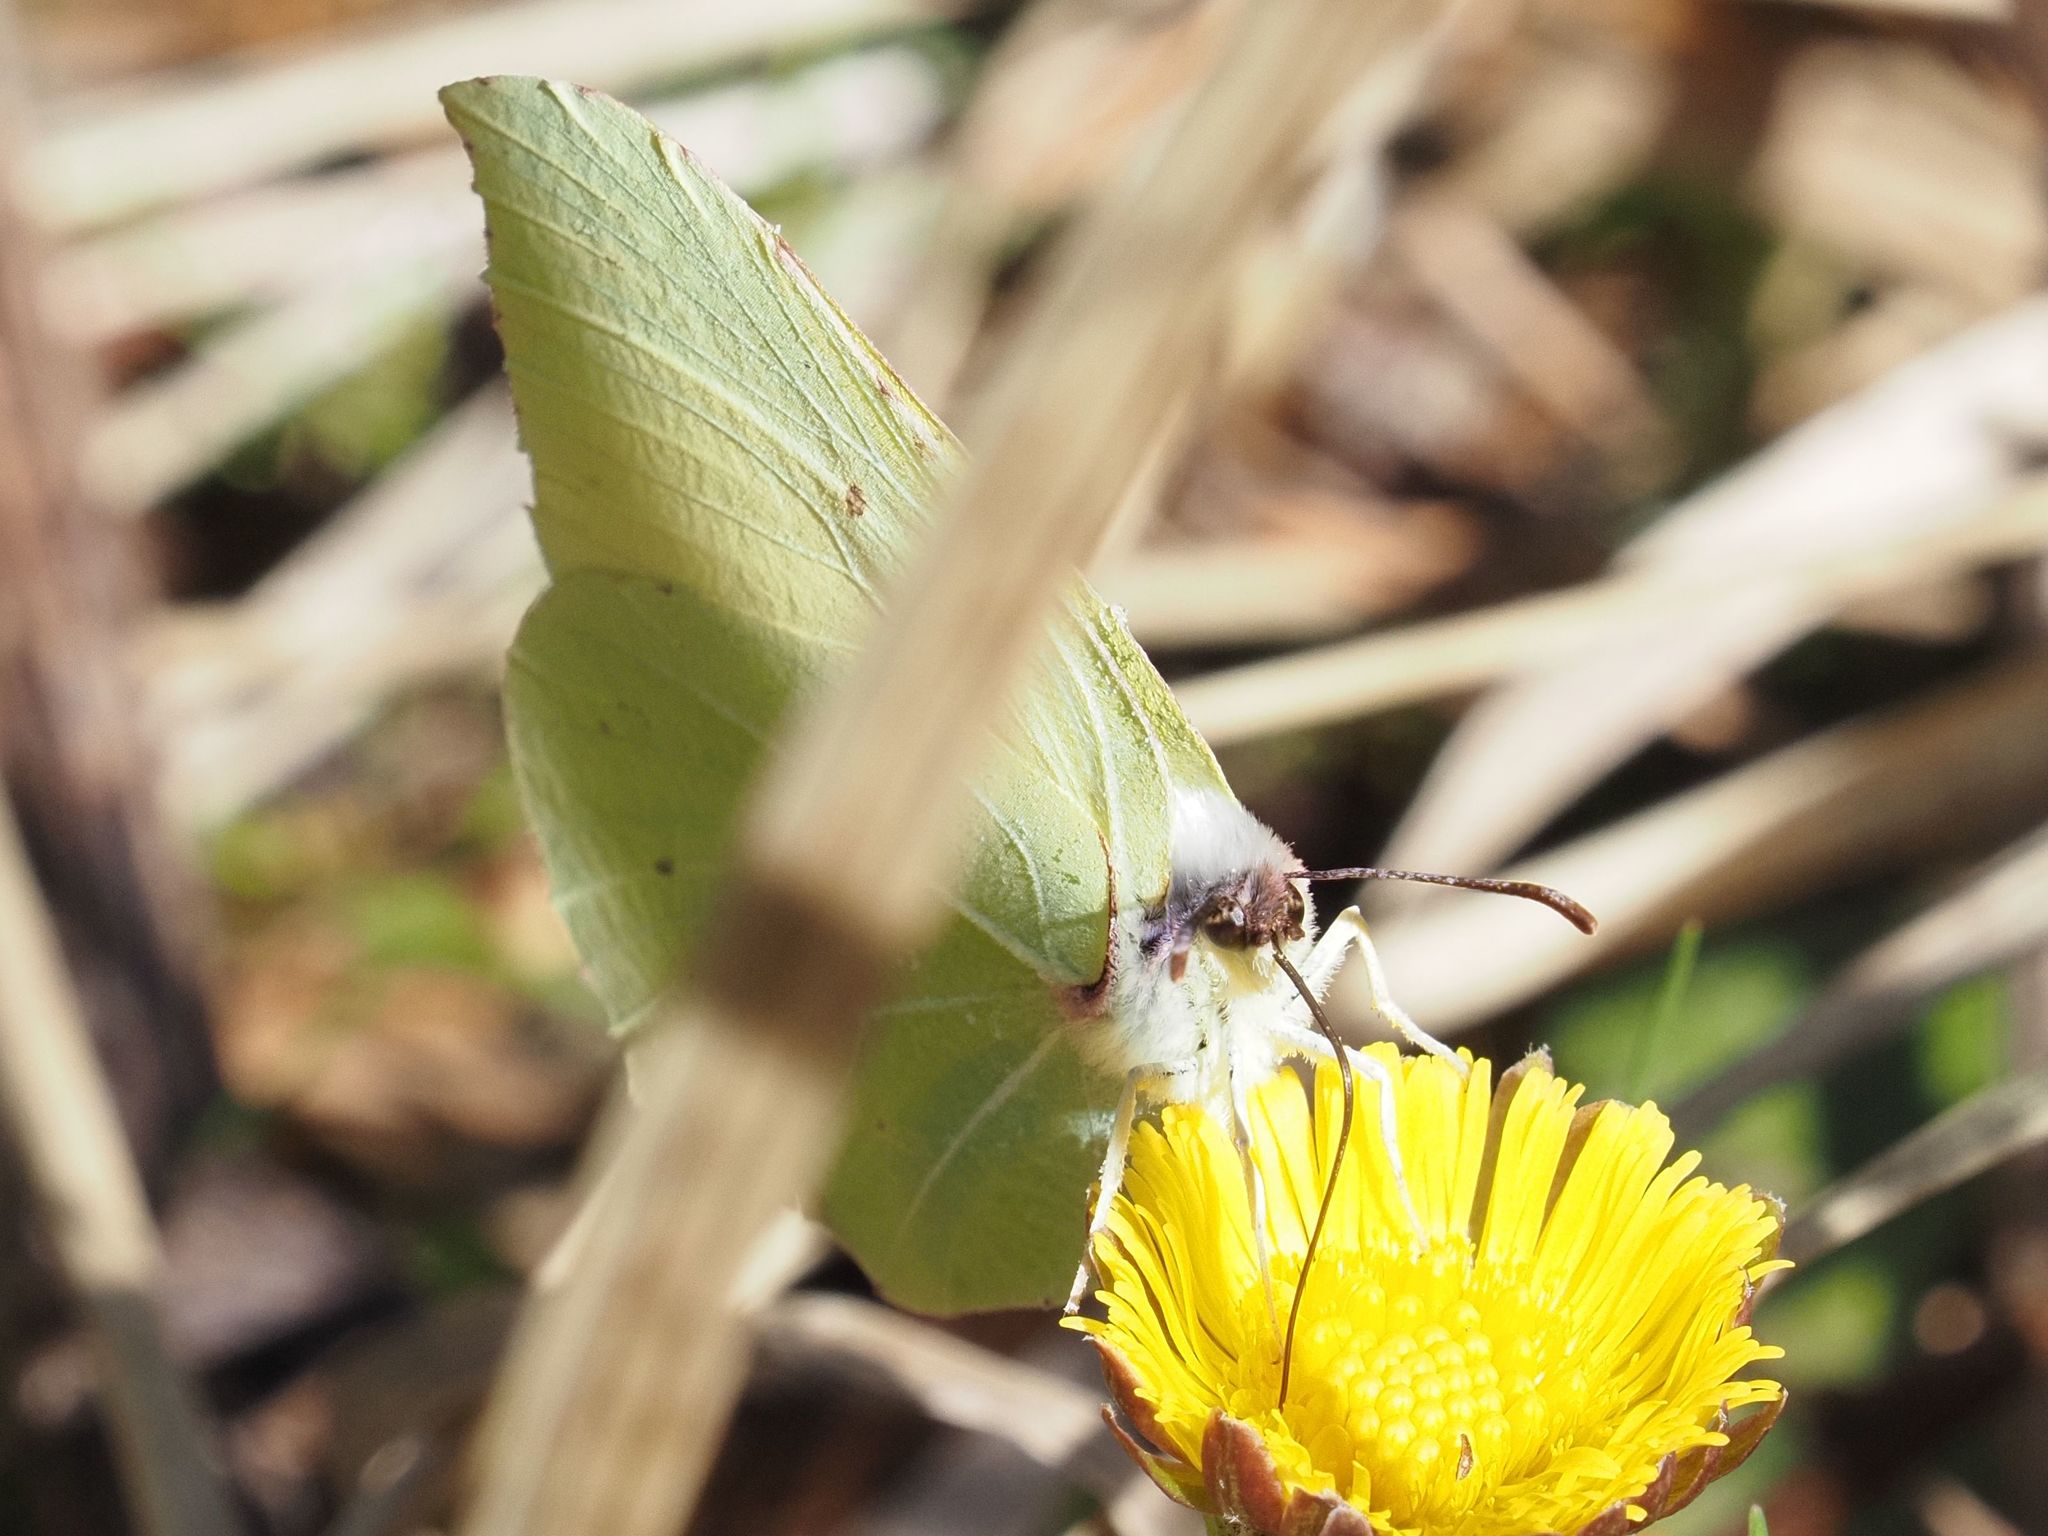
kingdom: Animalia
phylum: Arthropoda
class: Insecta
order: Lepidoptera
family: Pieridae
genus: Gonepteryx
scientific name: Gonepteryx rhamni
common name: Brimstone
